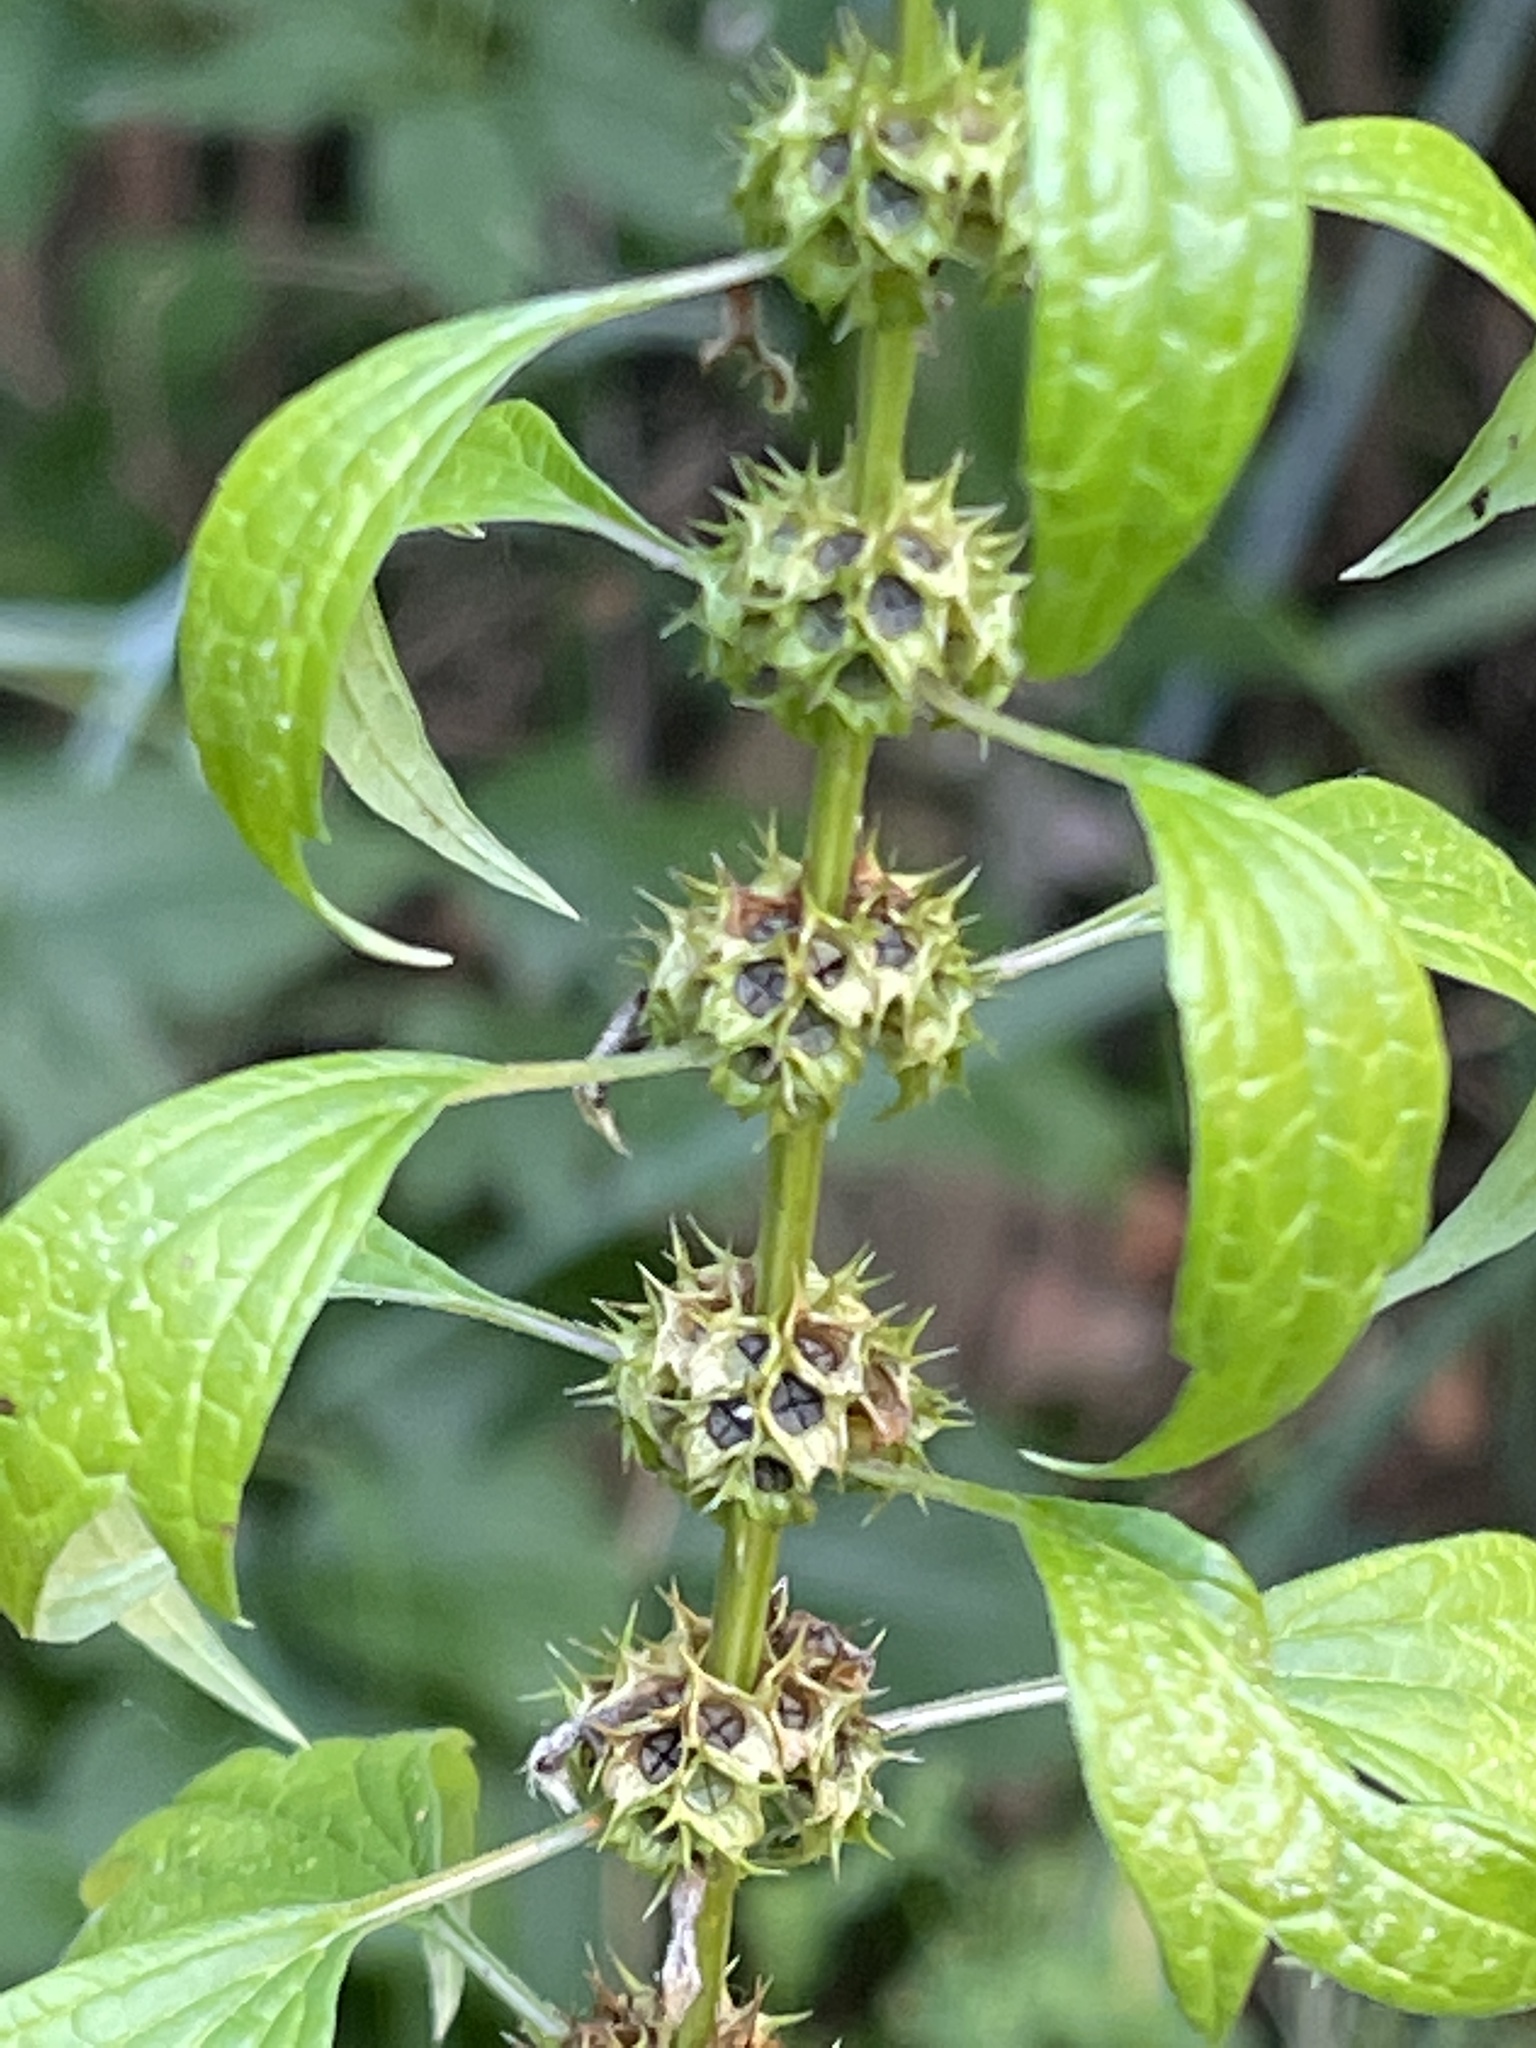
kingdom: Plantae
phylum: Tracheophyta
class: Magnoliopsida
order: Lamiales
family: Lamiaceae
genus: Leonurus
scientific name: Leonurus cardiaca
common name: Motherwort
